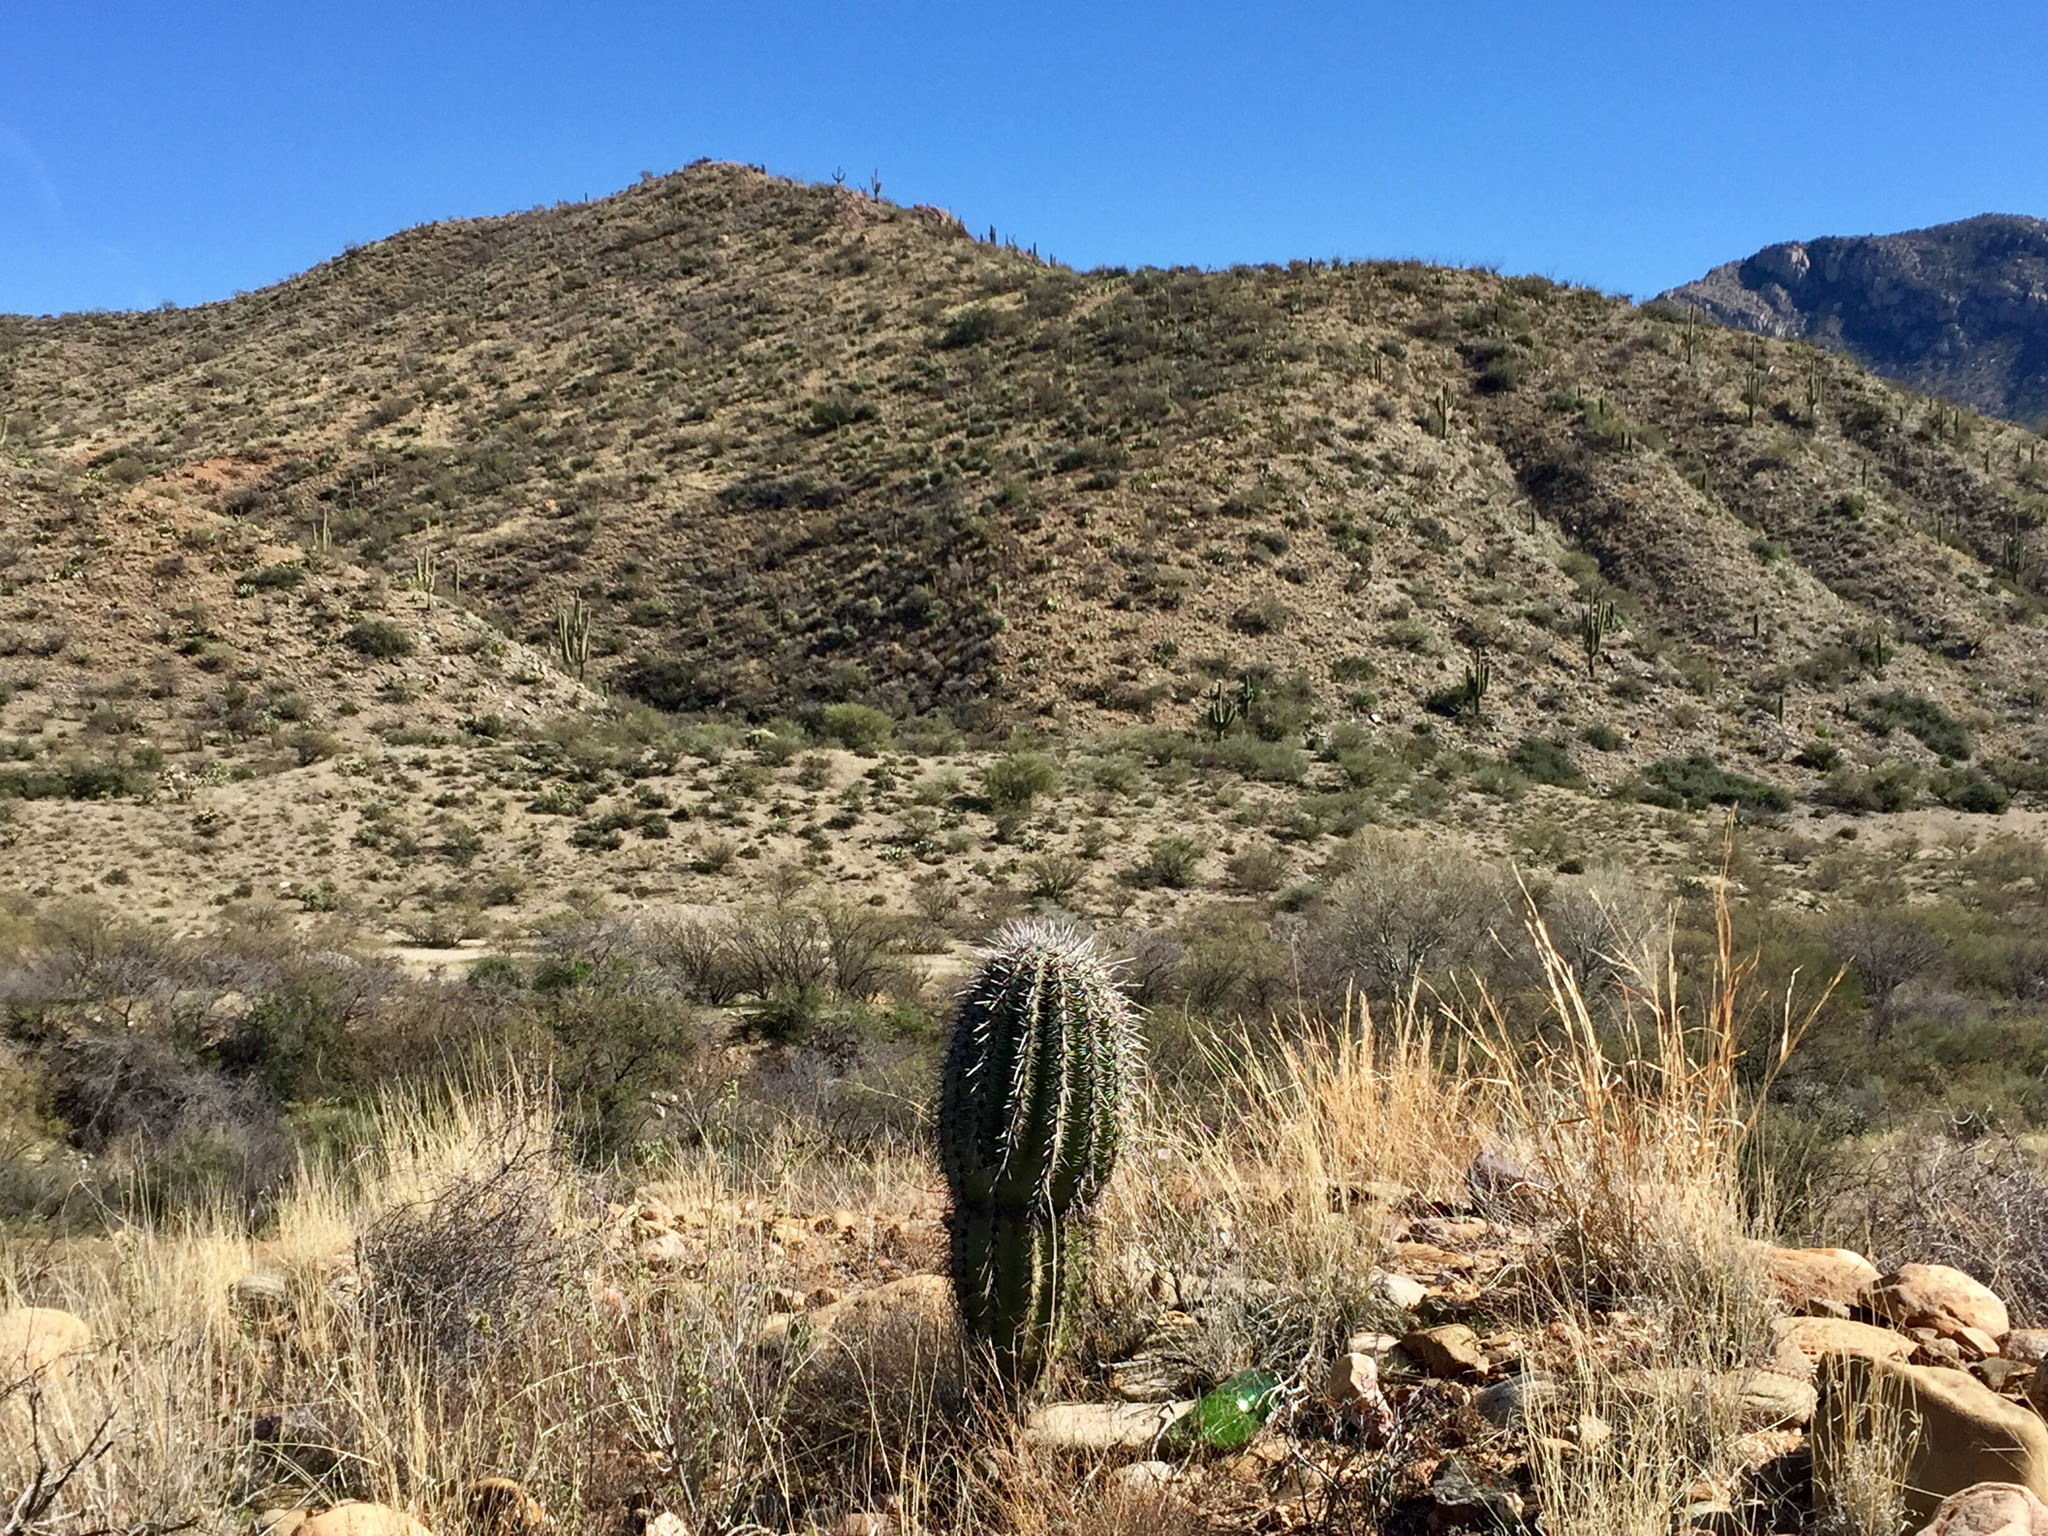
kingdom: Plantae
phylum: Tracheophyta
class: Magnoliopsida
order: Caryophyllales
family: Cactaceae
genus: Carnegiea
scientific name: Carnegiea gigantea
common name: Saguaro
